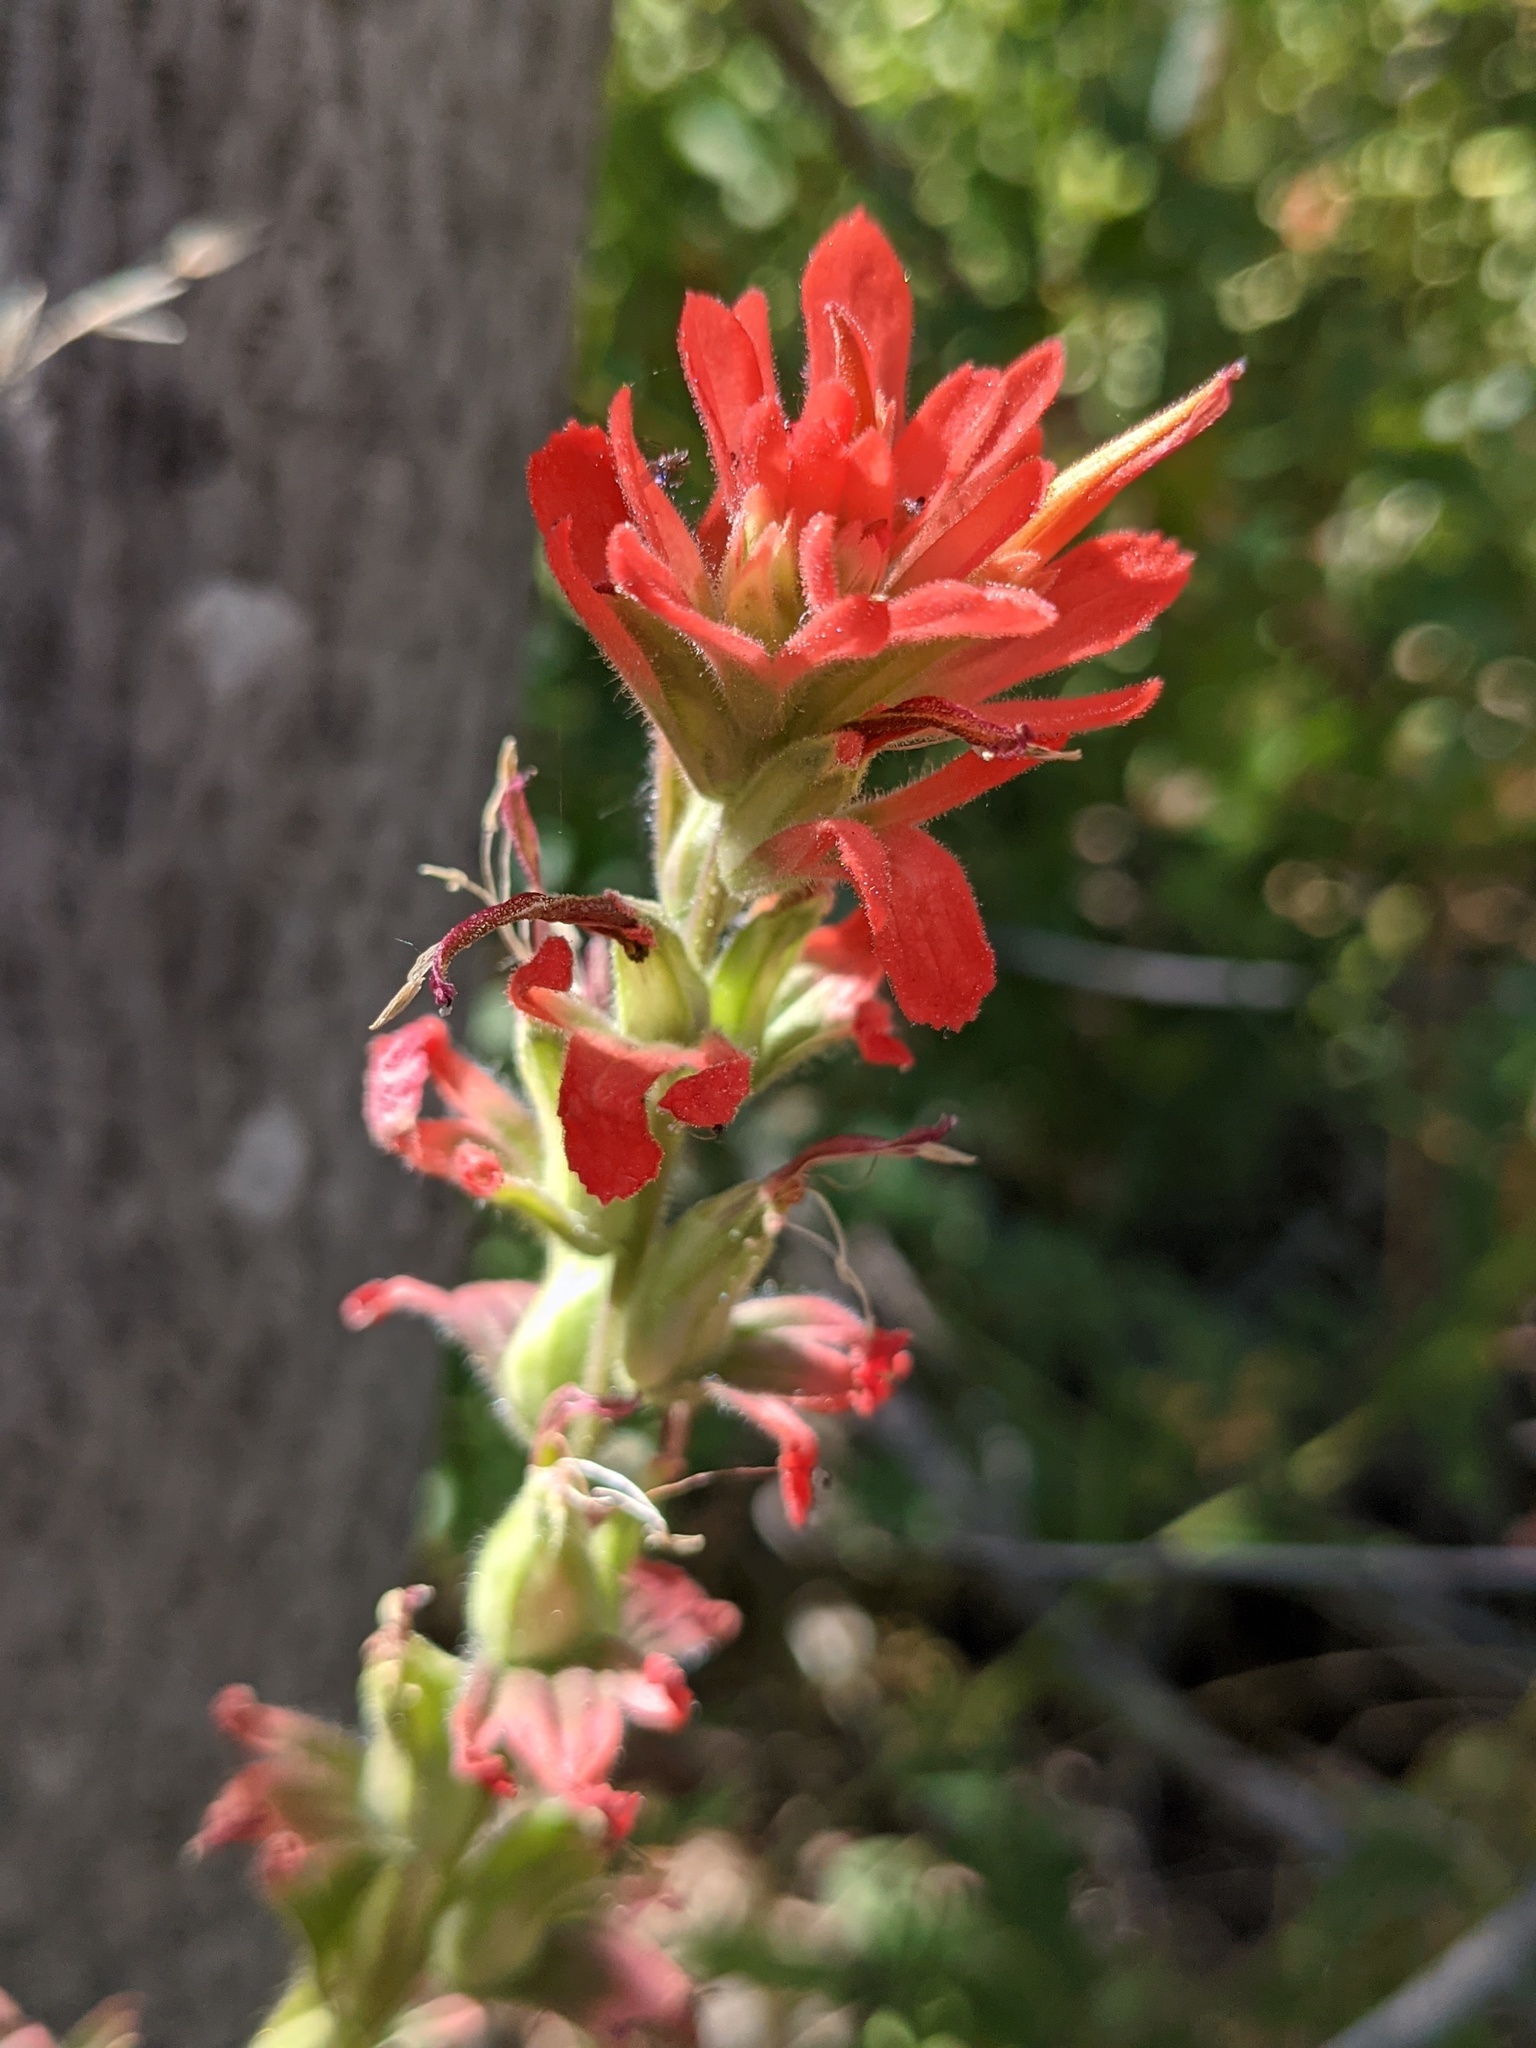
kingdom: Plantae
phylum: Tracheophyta
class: Magnoliopsida
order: Lamiales
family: Orobanchaceae
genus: Castilleja
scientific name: Castilleja martini
